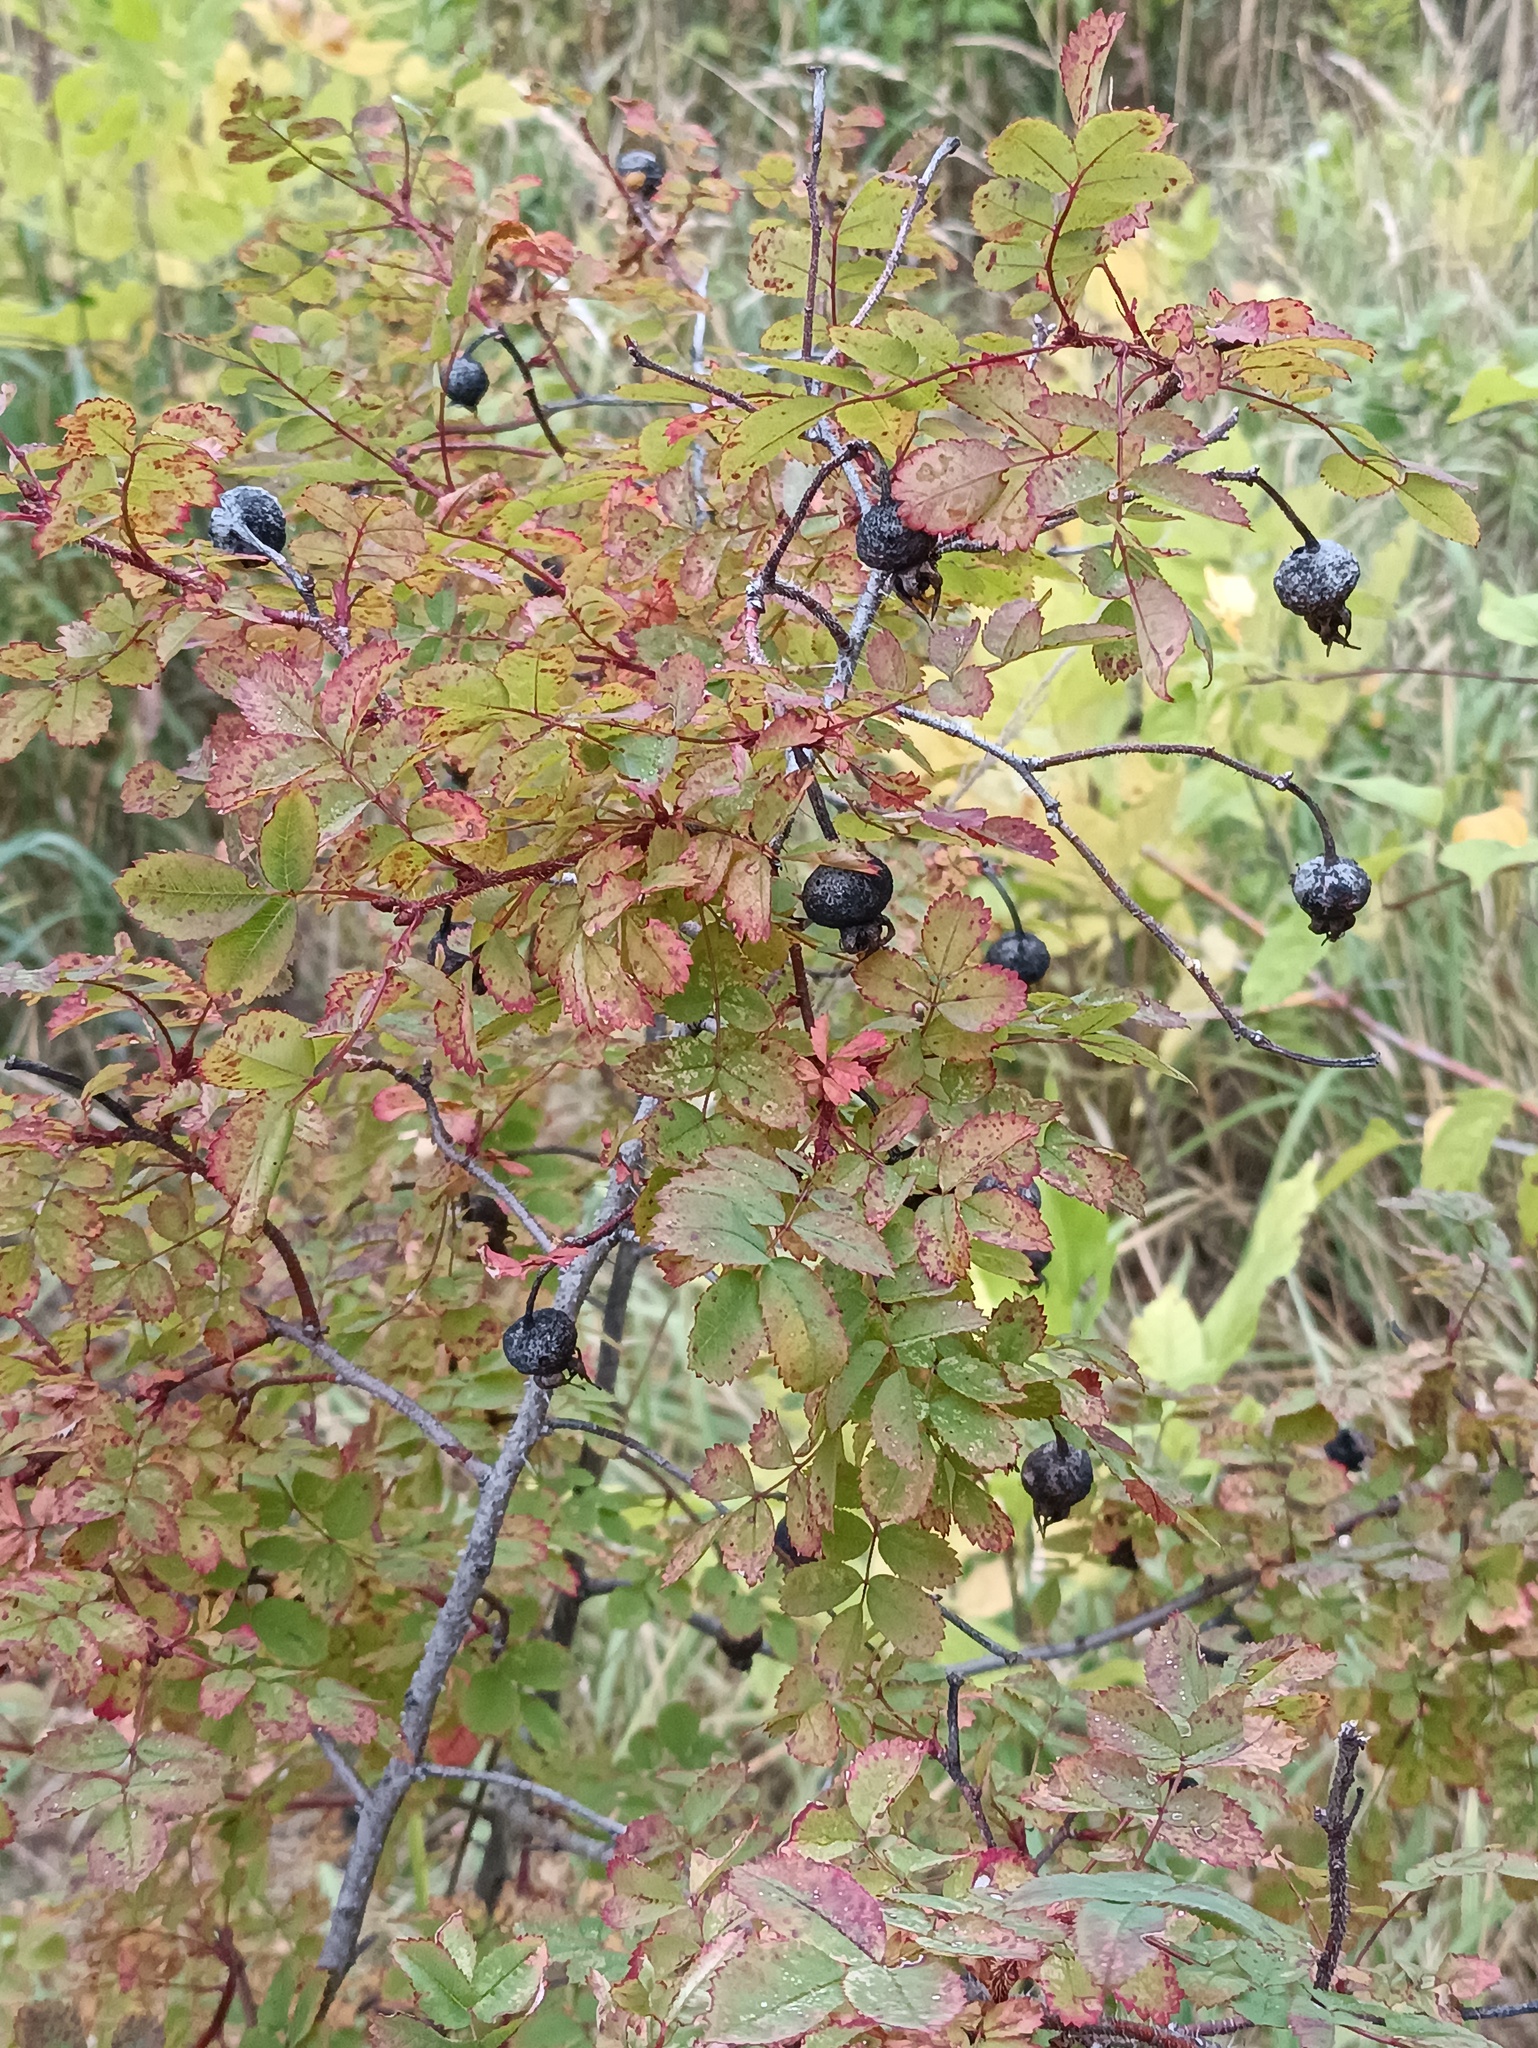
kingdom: Plantae
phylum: Tracheophyta
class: Magnoliopsida
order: Rosales
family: Rosaceae
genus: Rosa
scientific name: Rosa spinosissima
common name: Burnet rose
